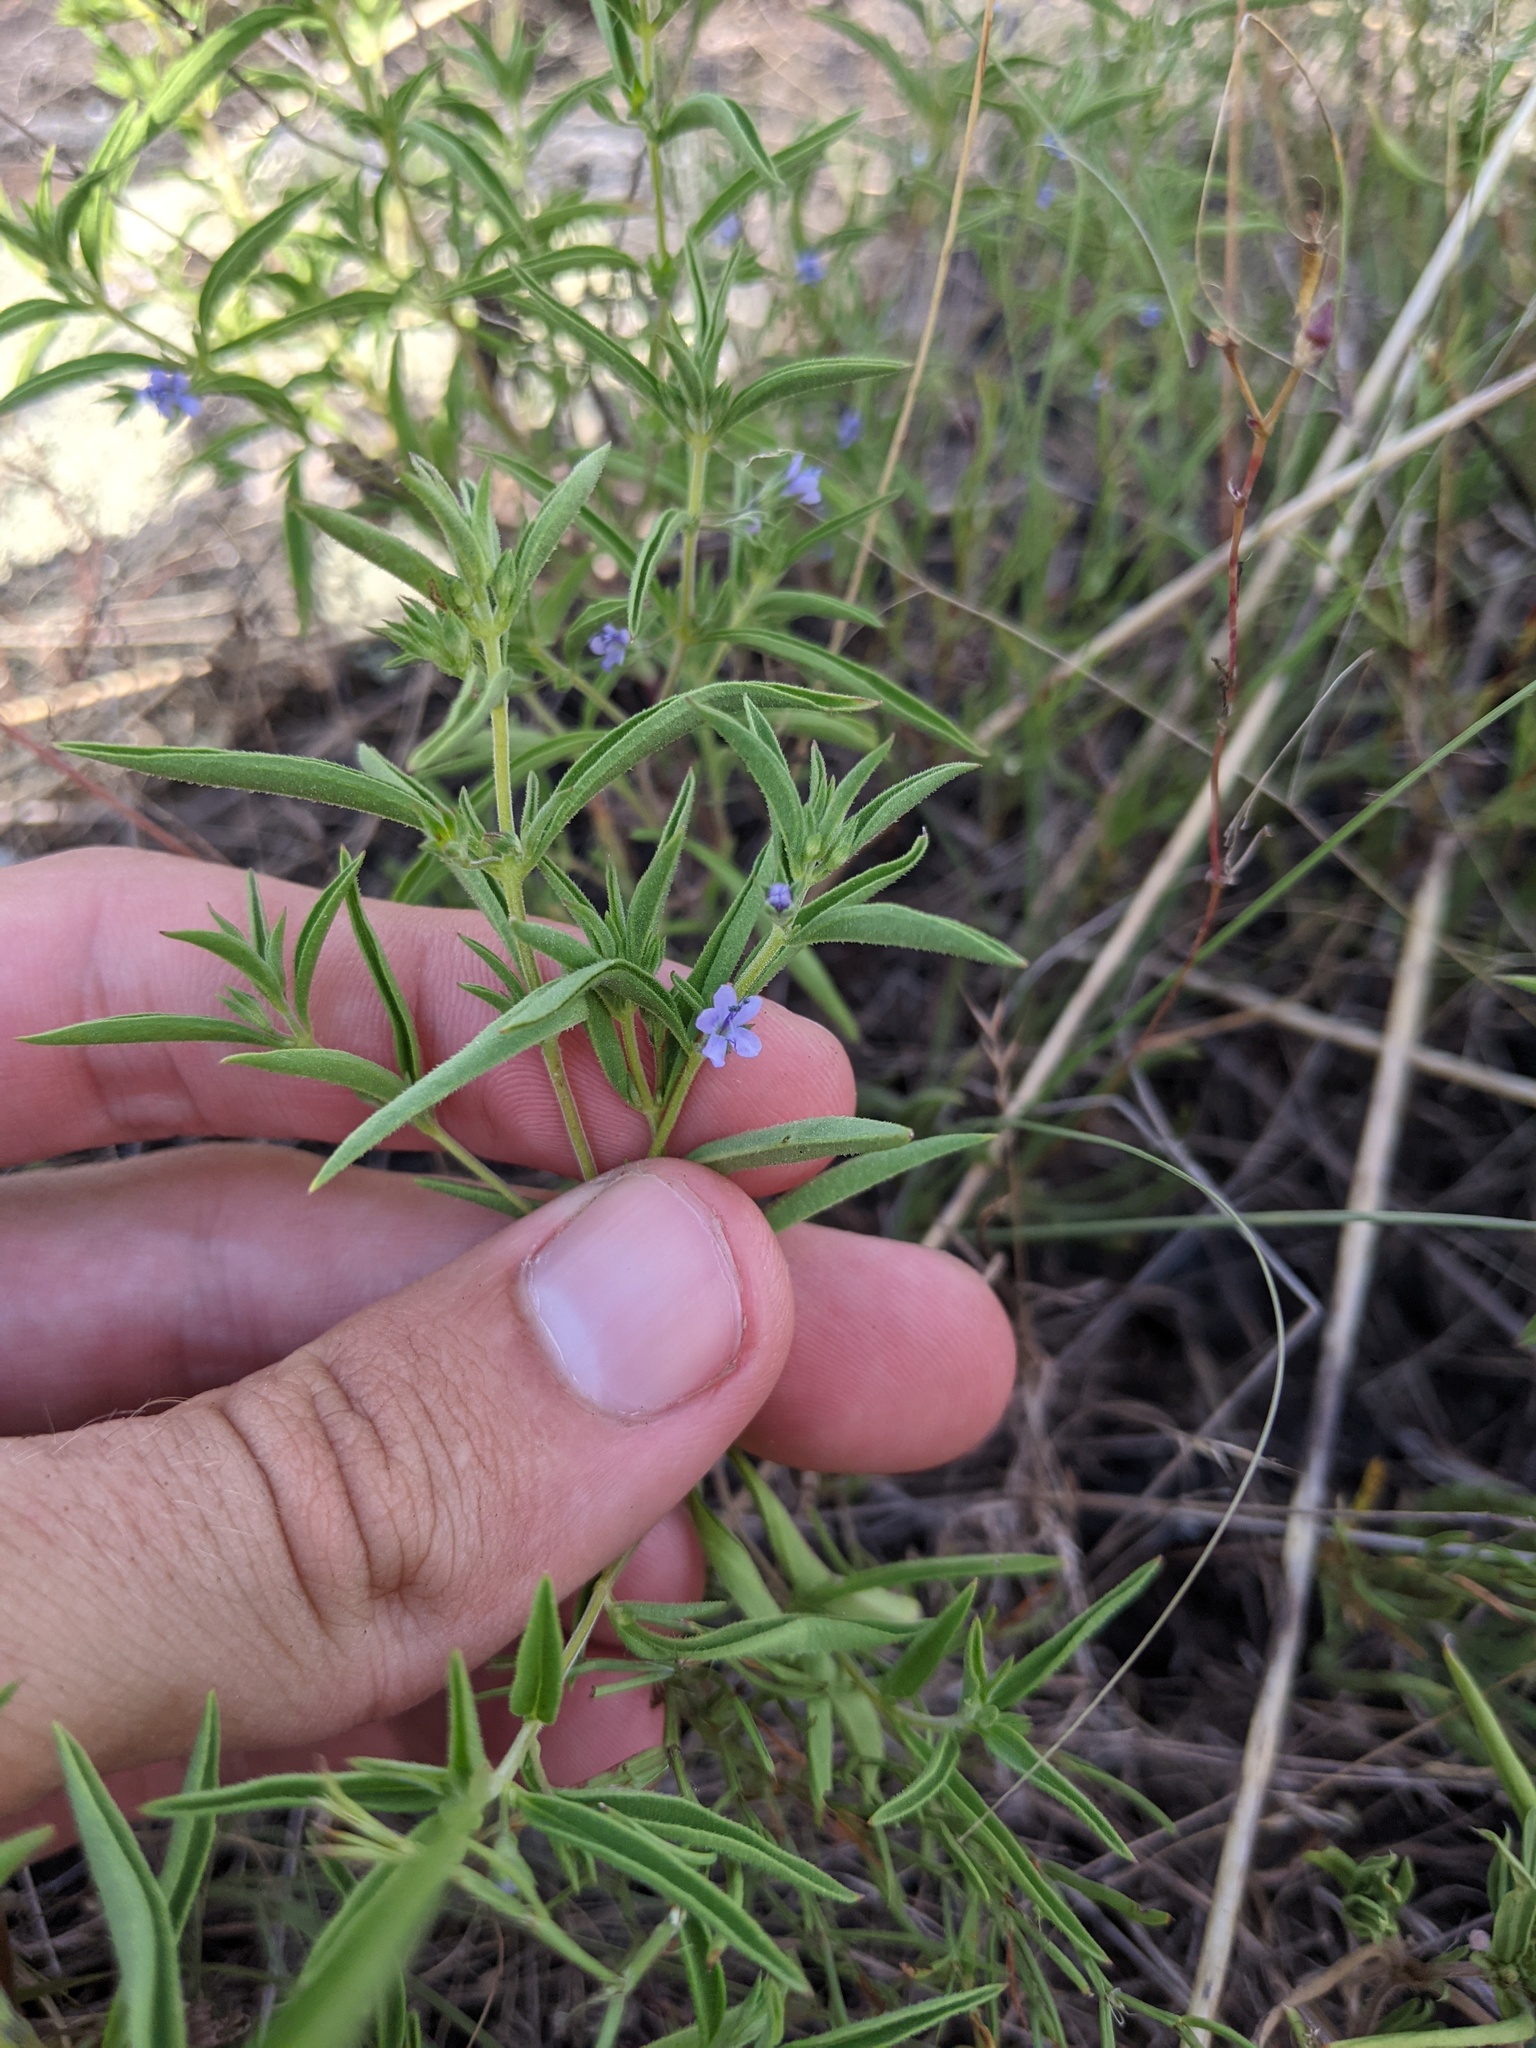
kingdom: Plantae
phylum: Tracheophyta
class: Magnoliopsida
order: Lamiales
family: Lamiaceae
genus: Trichostema
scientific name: Trichostema brachiatum
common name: False pennyroyal
